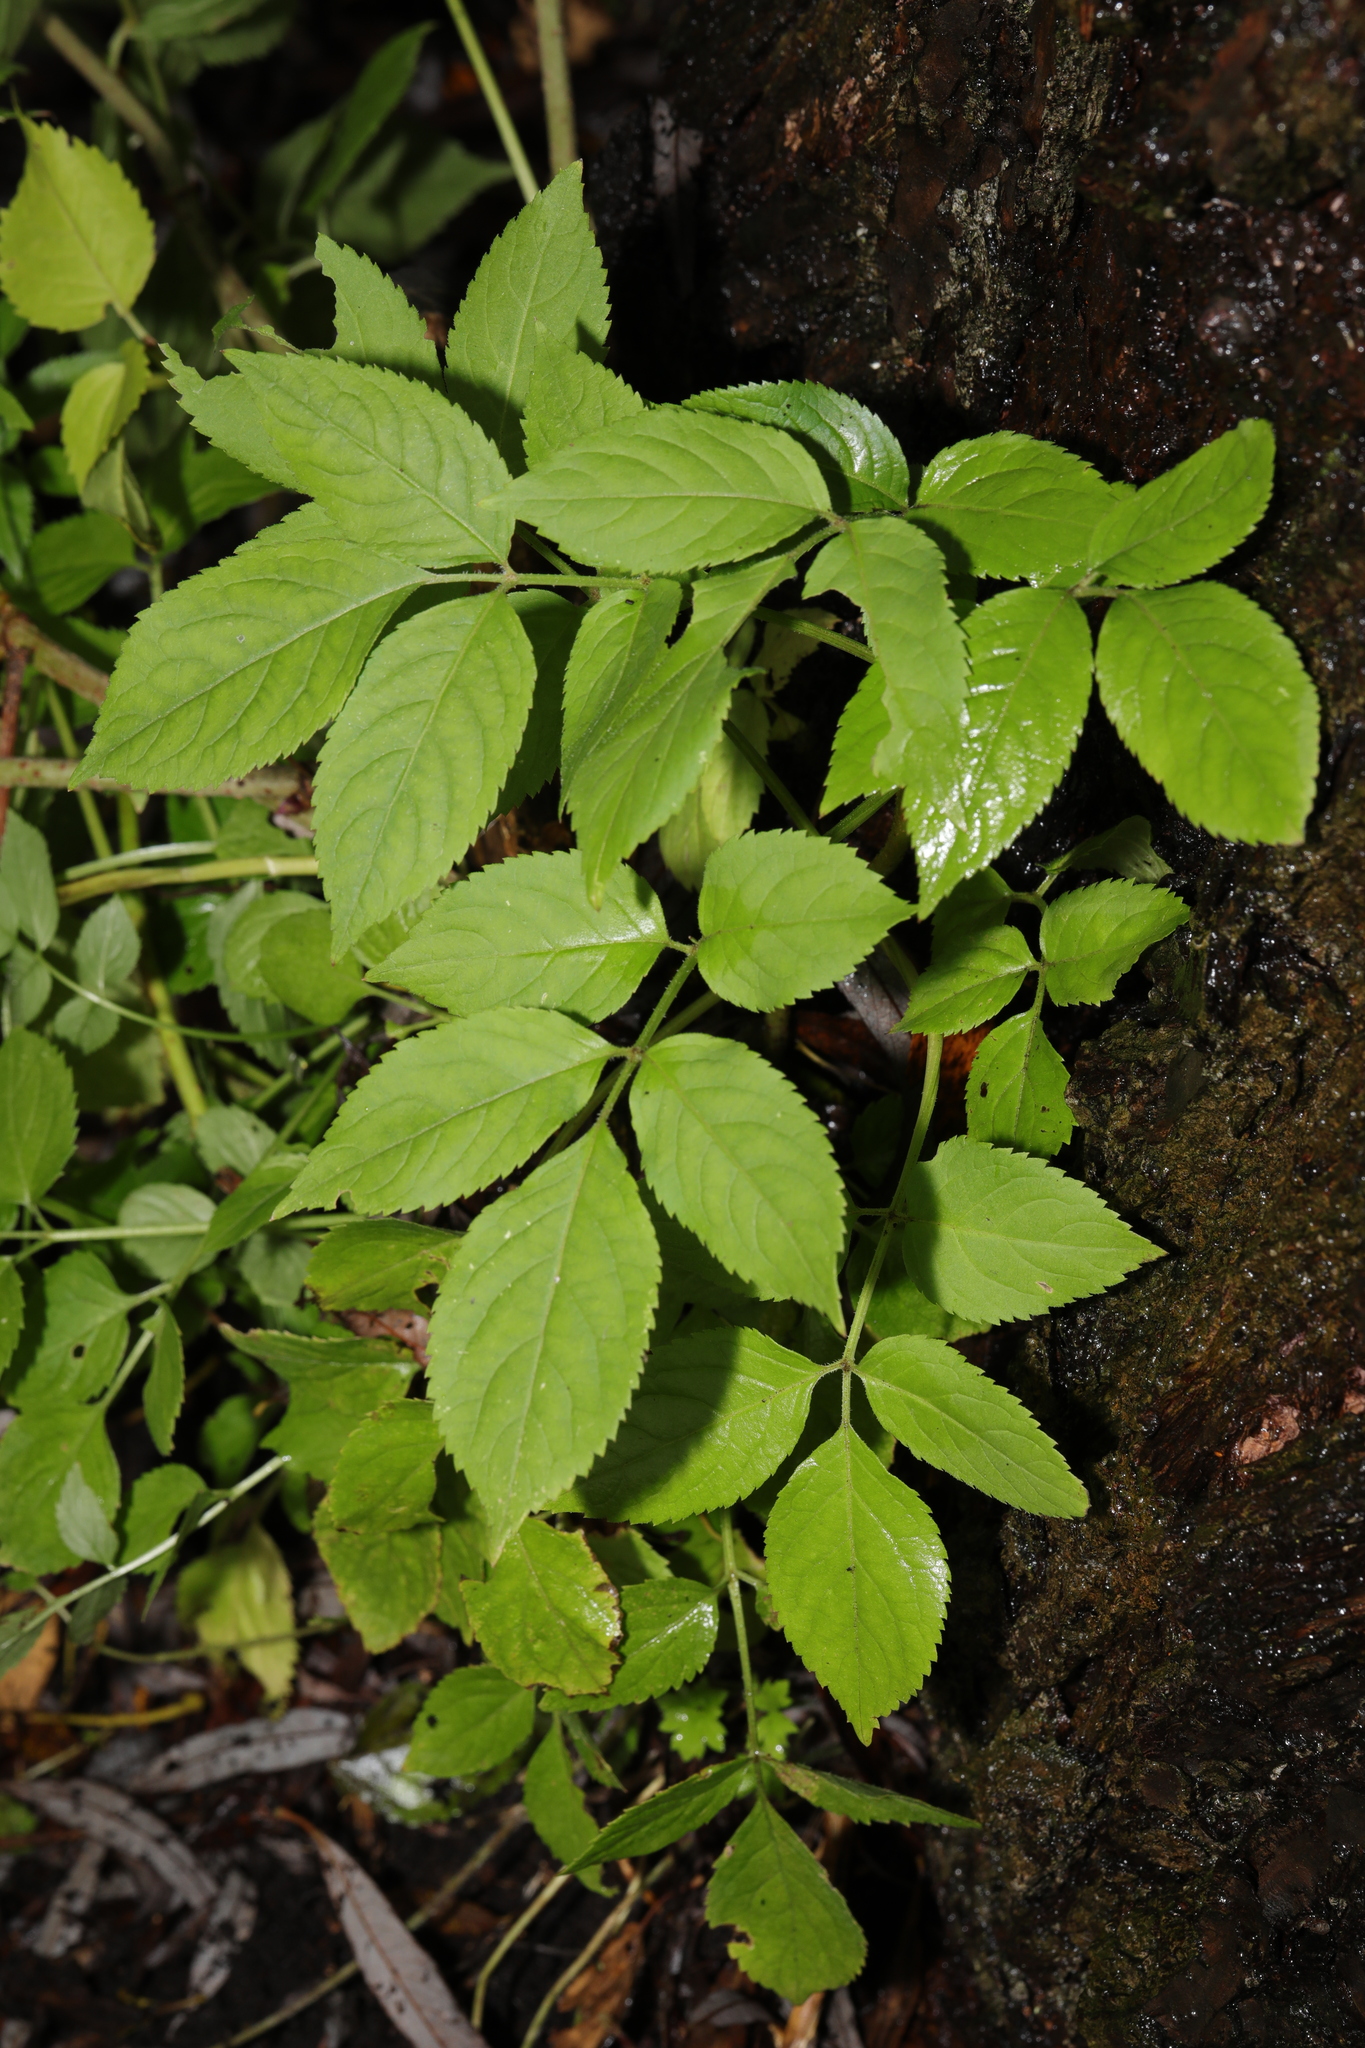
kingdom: Plantae
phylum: Tracheophyta
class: Magnoliopsida
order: Dipsacales
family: Viburnaceae
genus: Sambucus
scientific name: Sambucus nigra
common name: Elder
